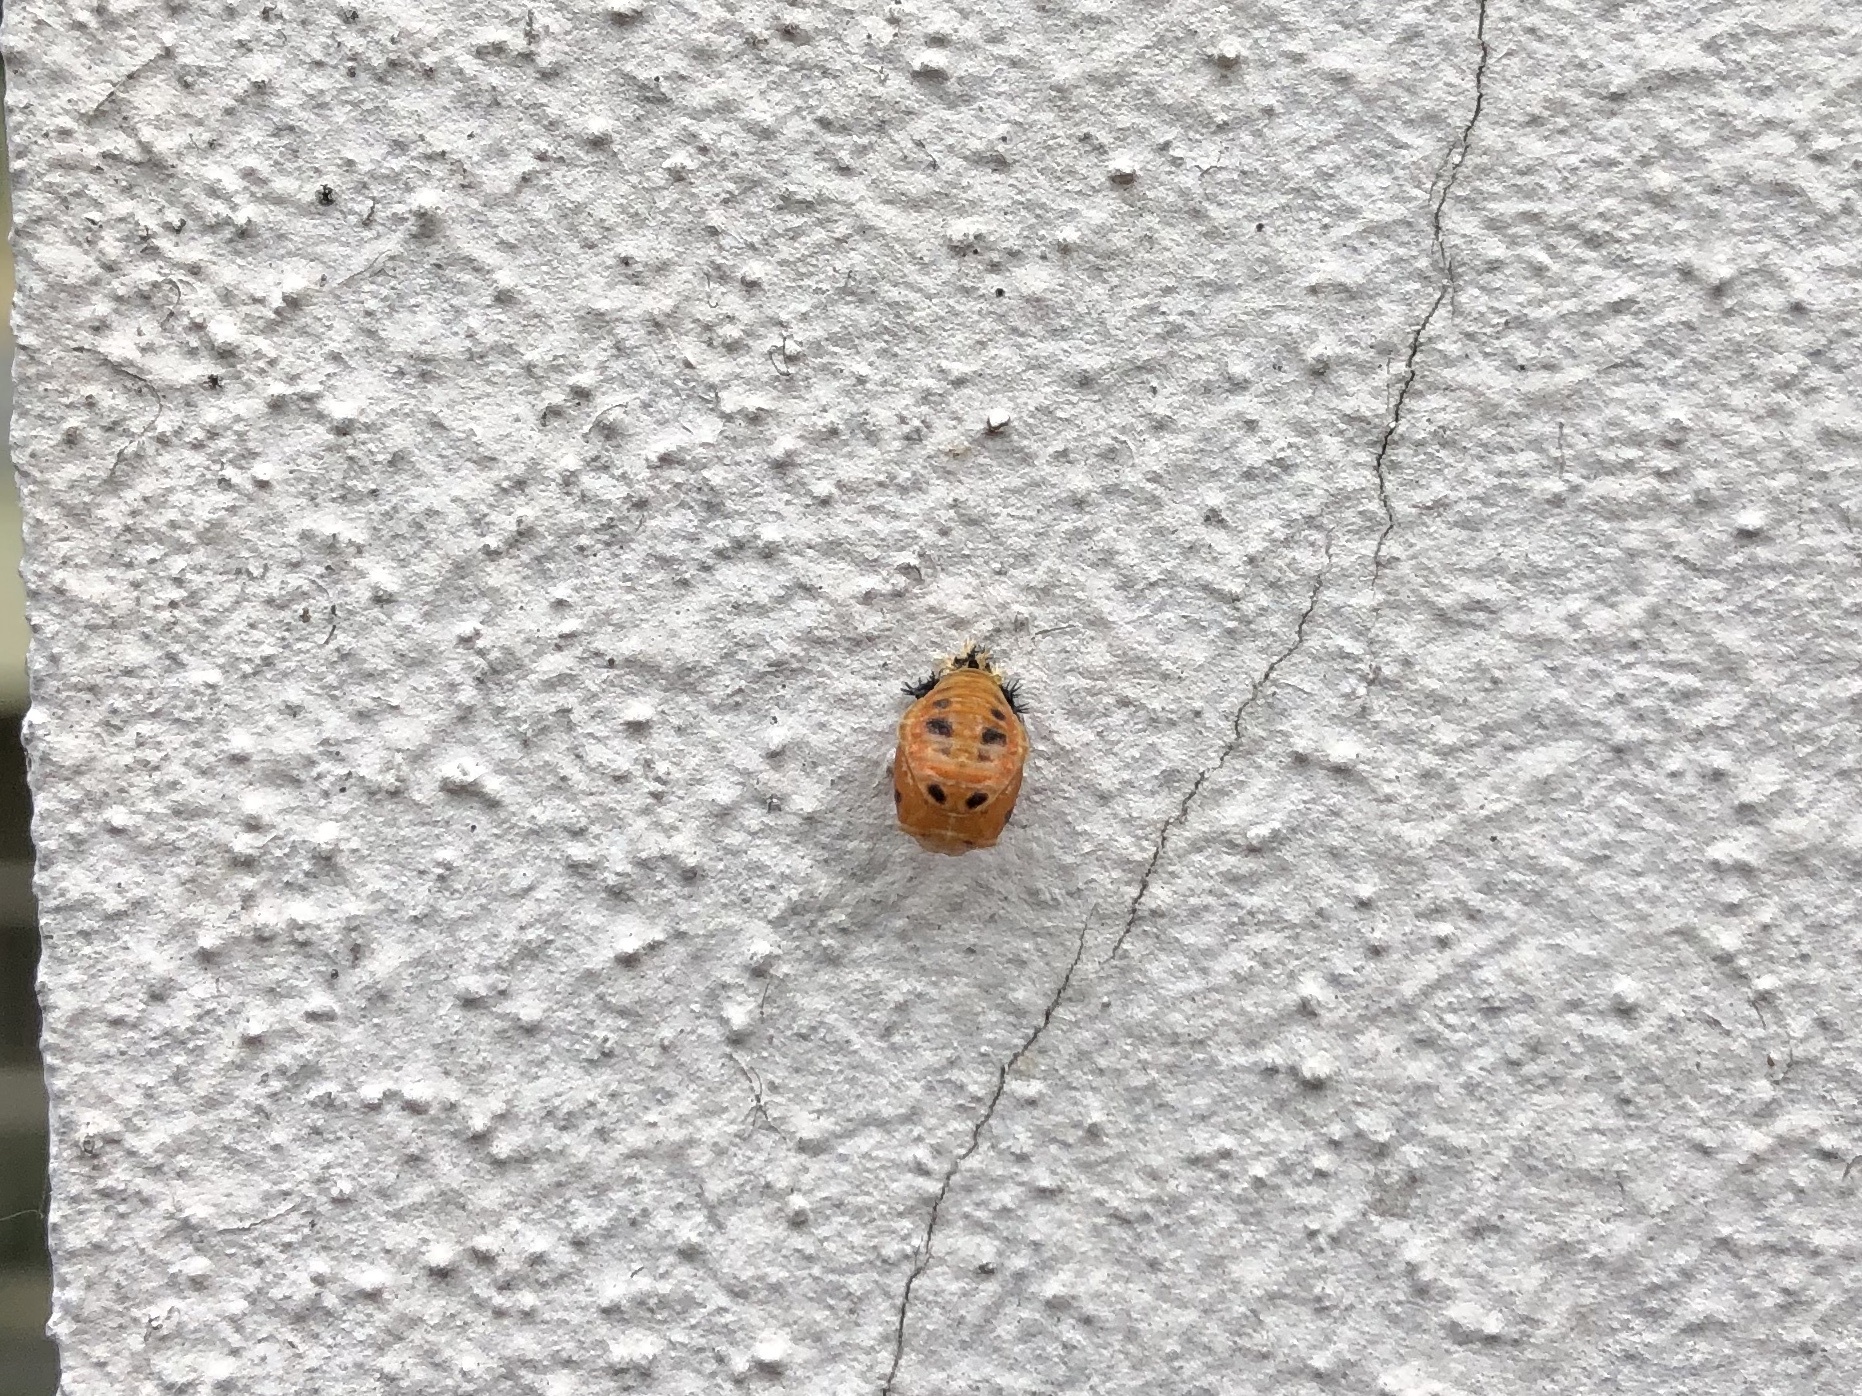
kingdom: Animalia
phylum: Arthropoda
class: Insecta
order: Coleoptera
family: Coccinellidae
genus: Harmonia
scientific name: Harmonia axyridis
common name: Harlequin ladybird
